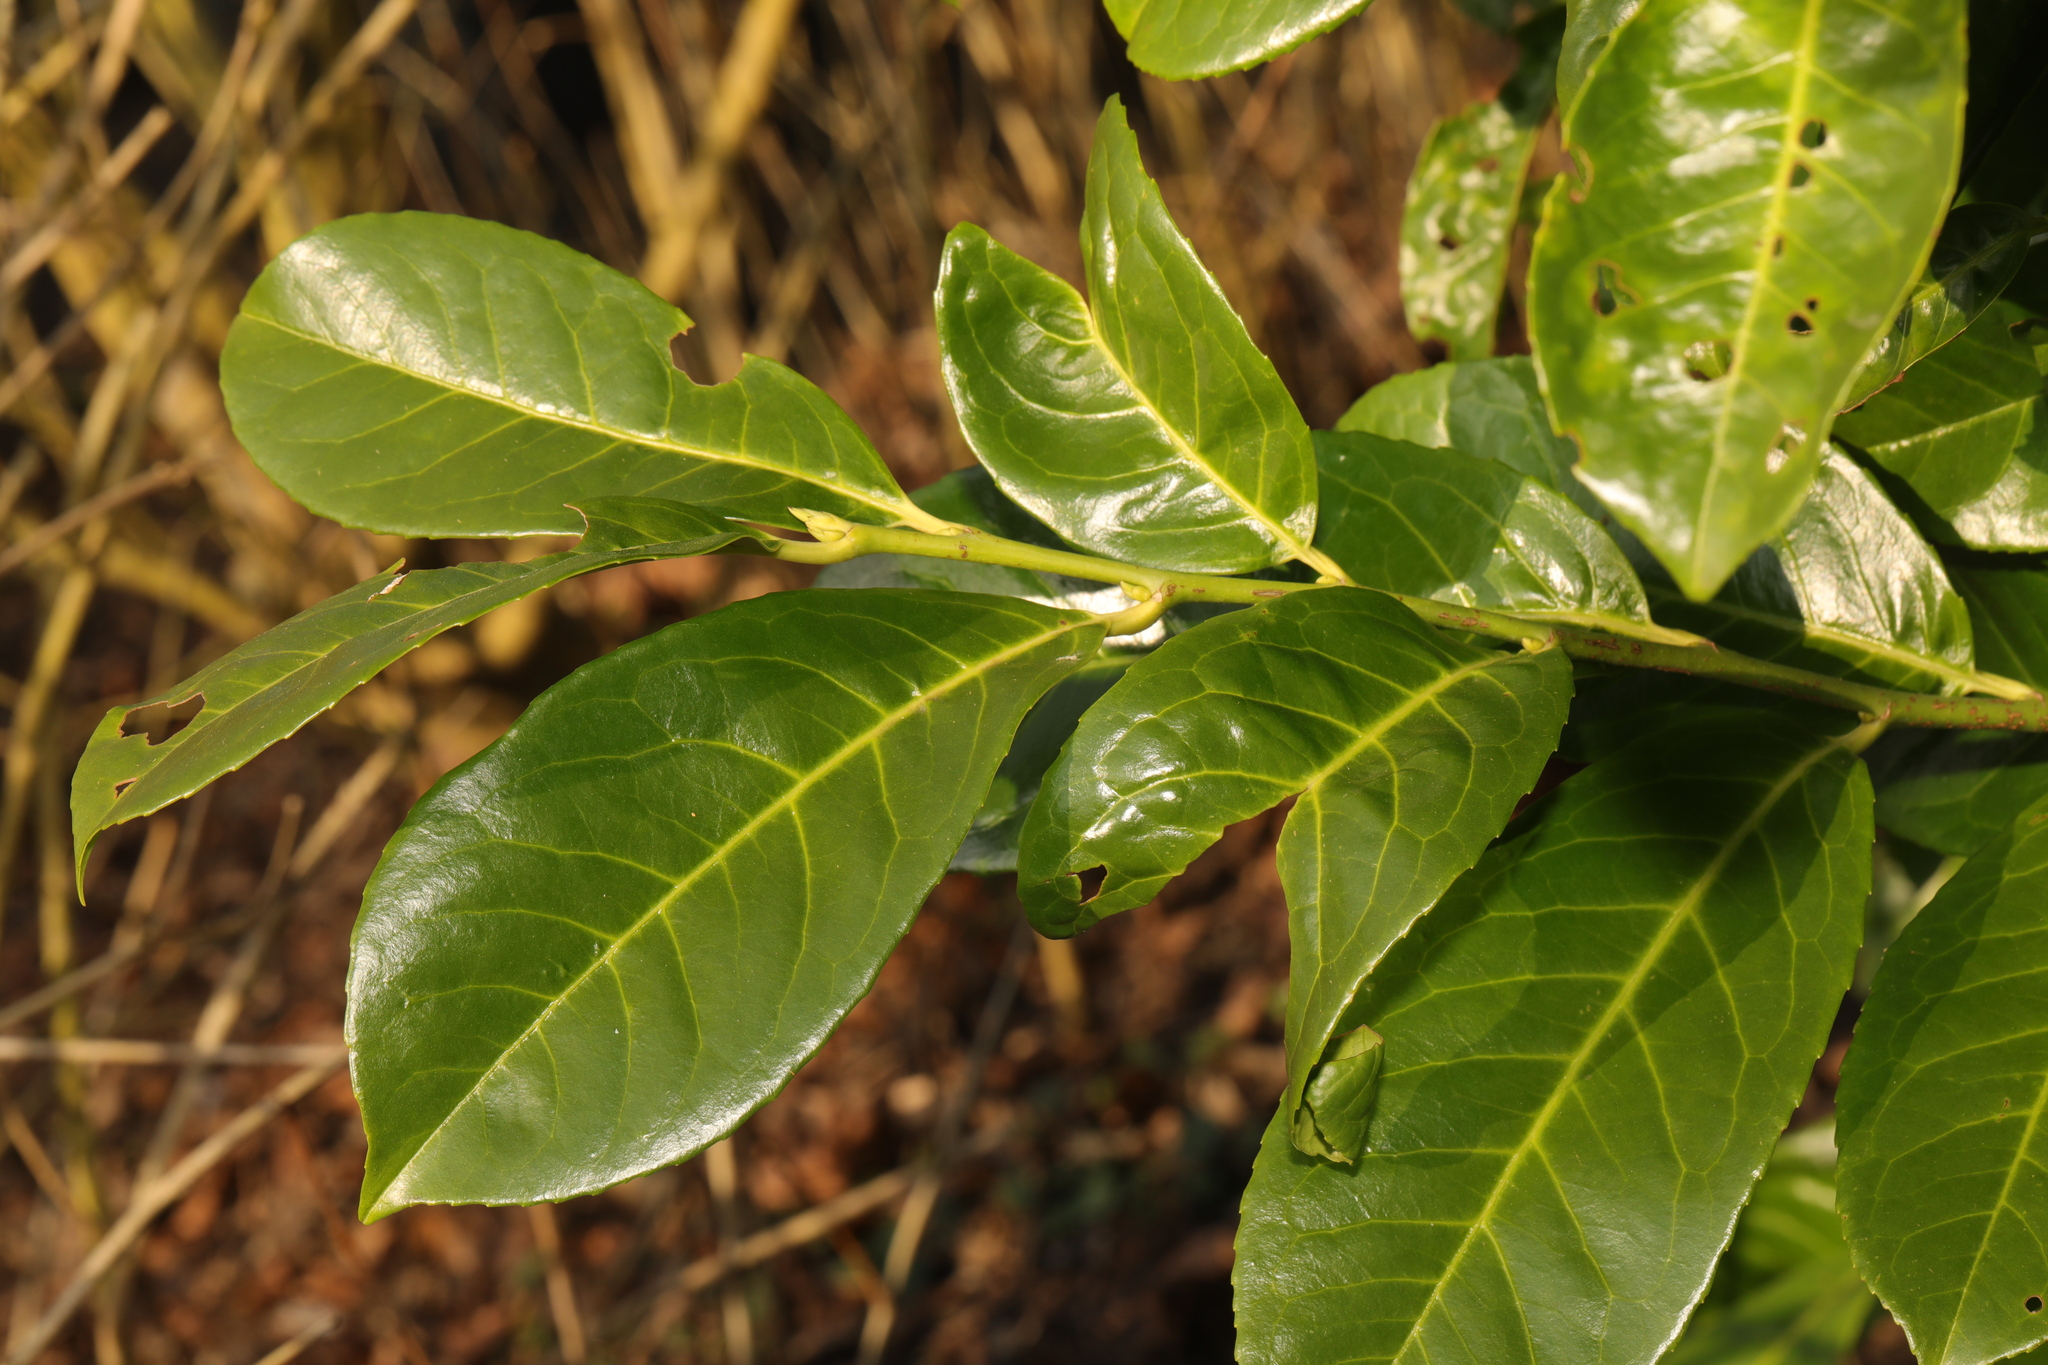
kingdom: Plantae
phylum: Tracheophyta
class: Magnoliopsida
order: Rosales
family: Rosaceae
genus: Prunus
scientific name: Prunus laurocerasus
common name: Cherry laurel
